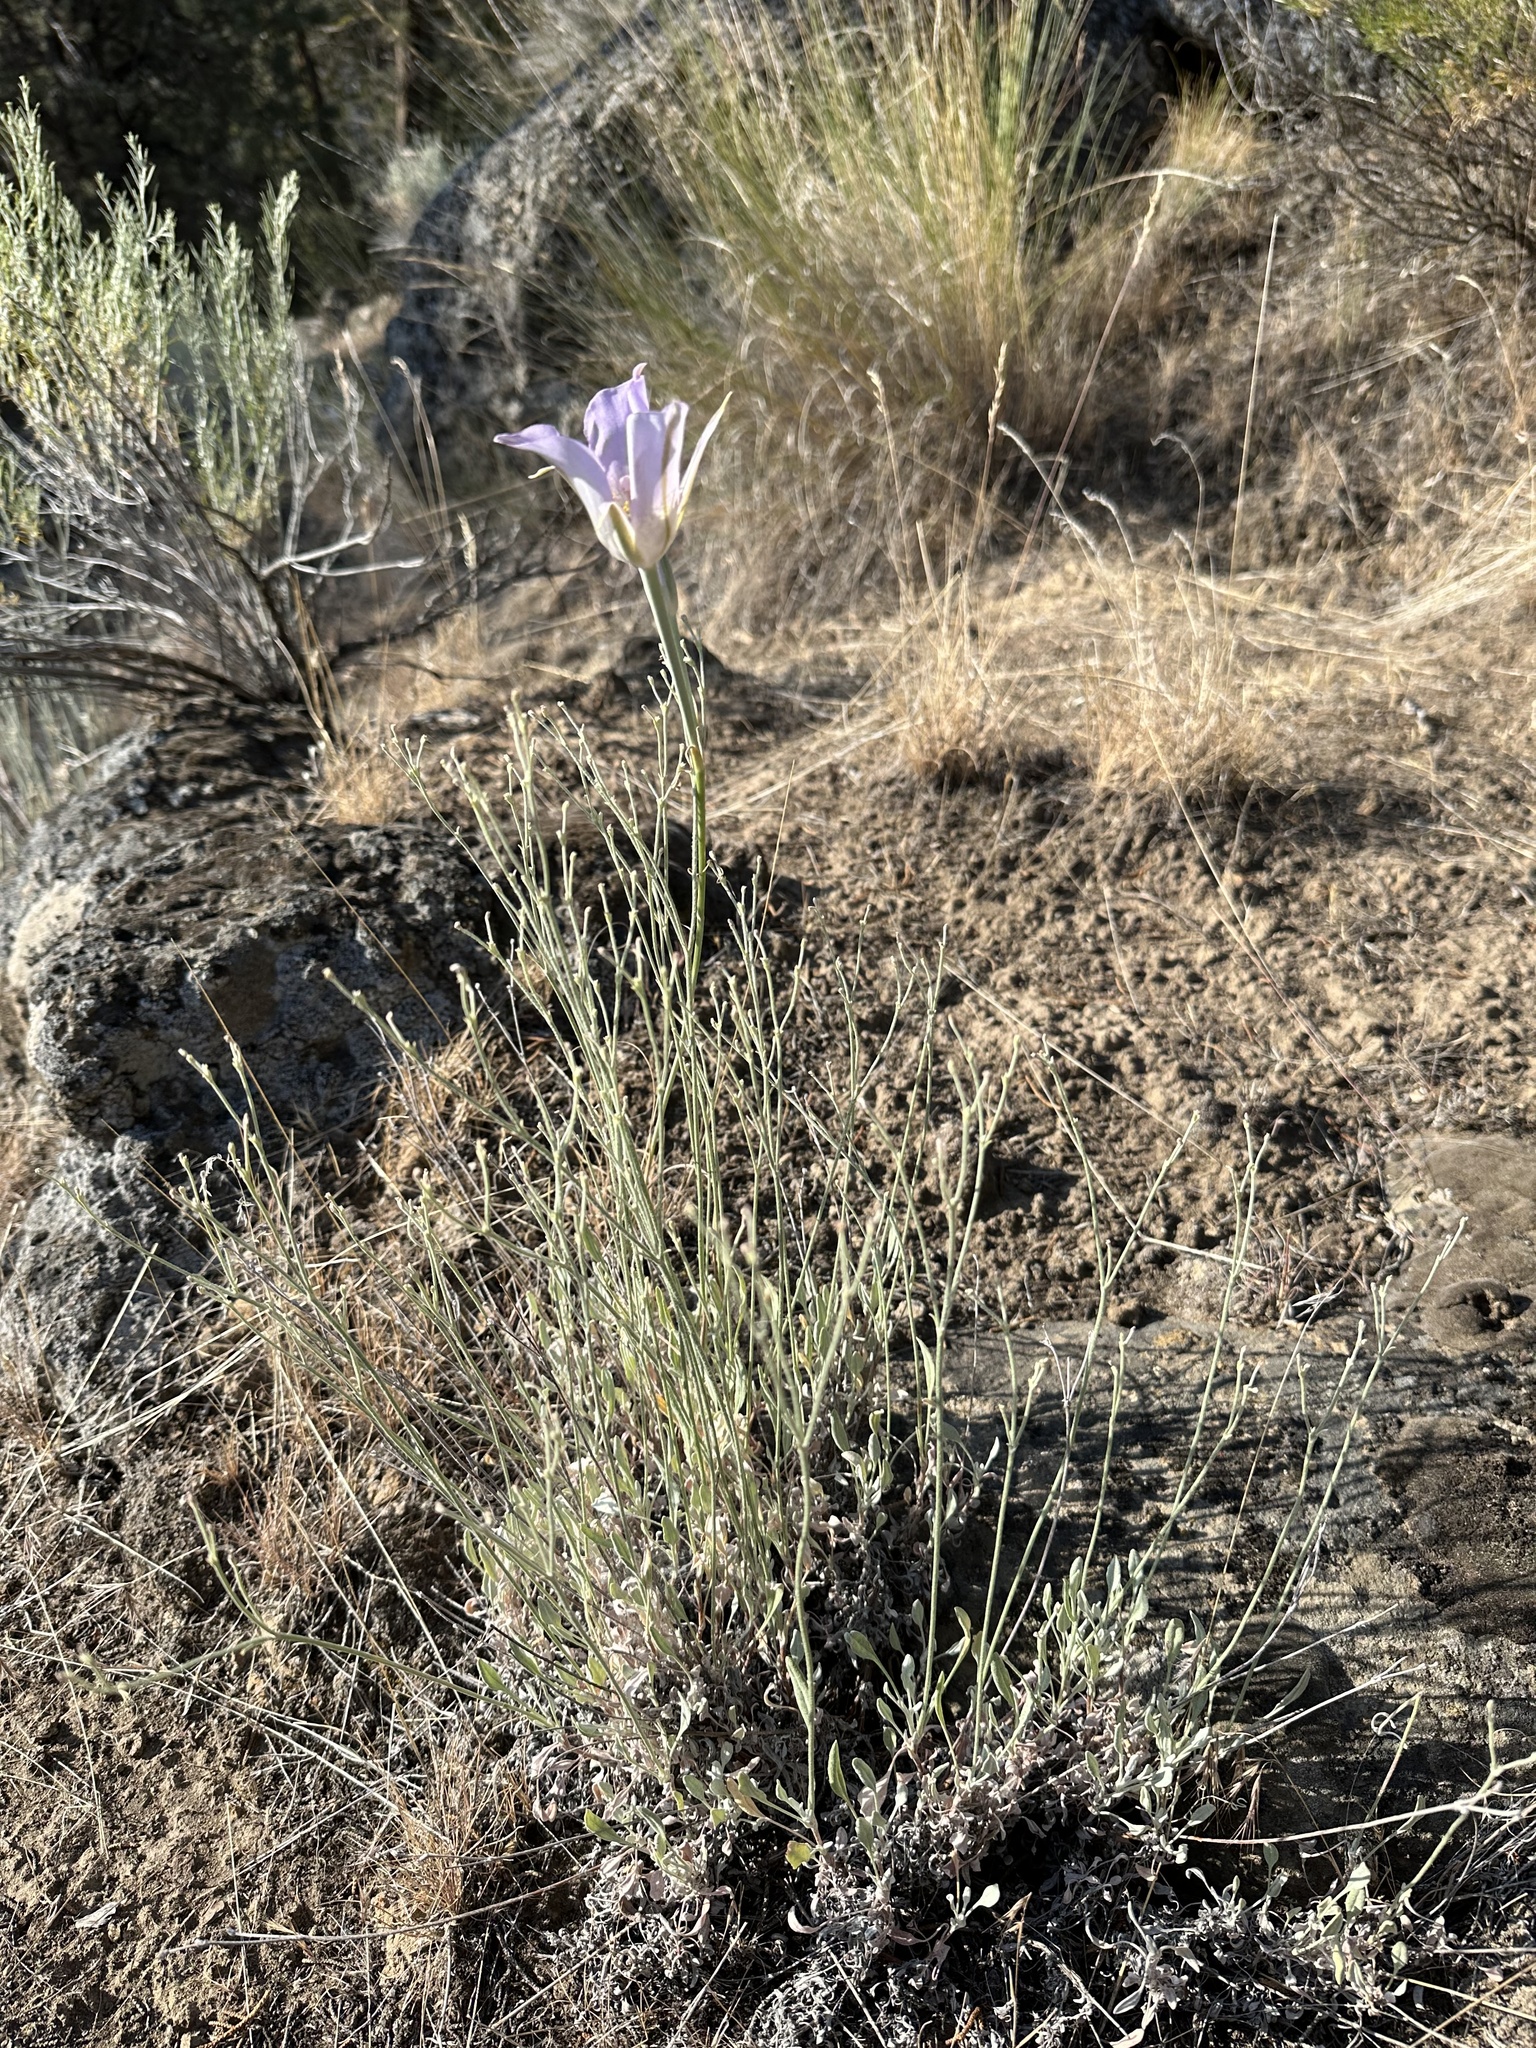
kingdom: Plantae
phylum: Tracheophyta
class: Liliopsida
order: Liliales
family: Liliaceae
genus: Calochortus
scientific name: Calochortus macrocarpus
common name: Green-band mariposa lily
